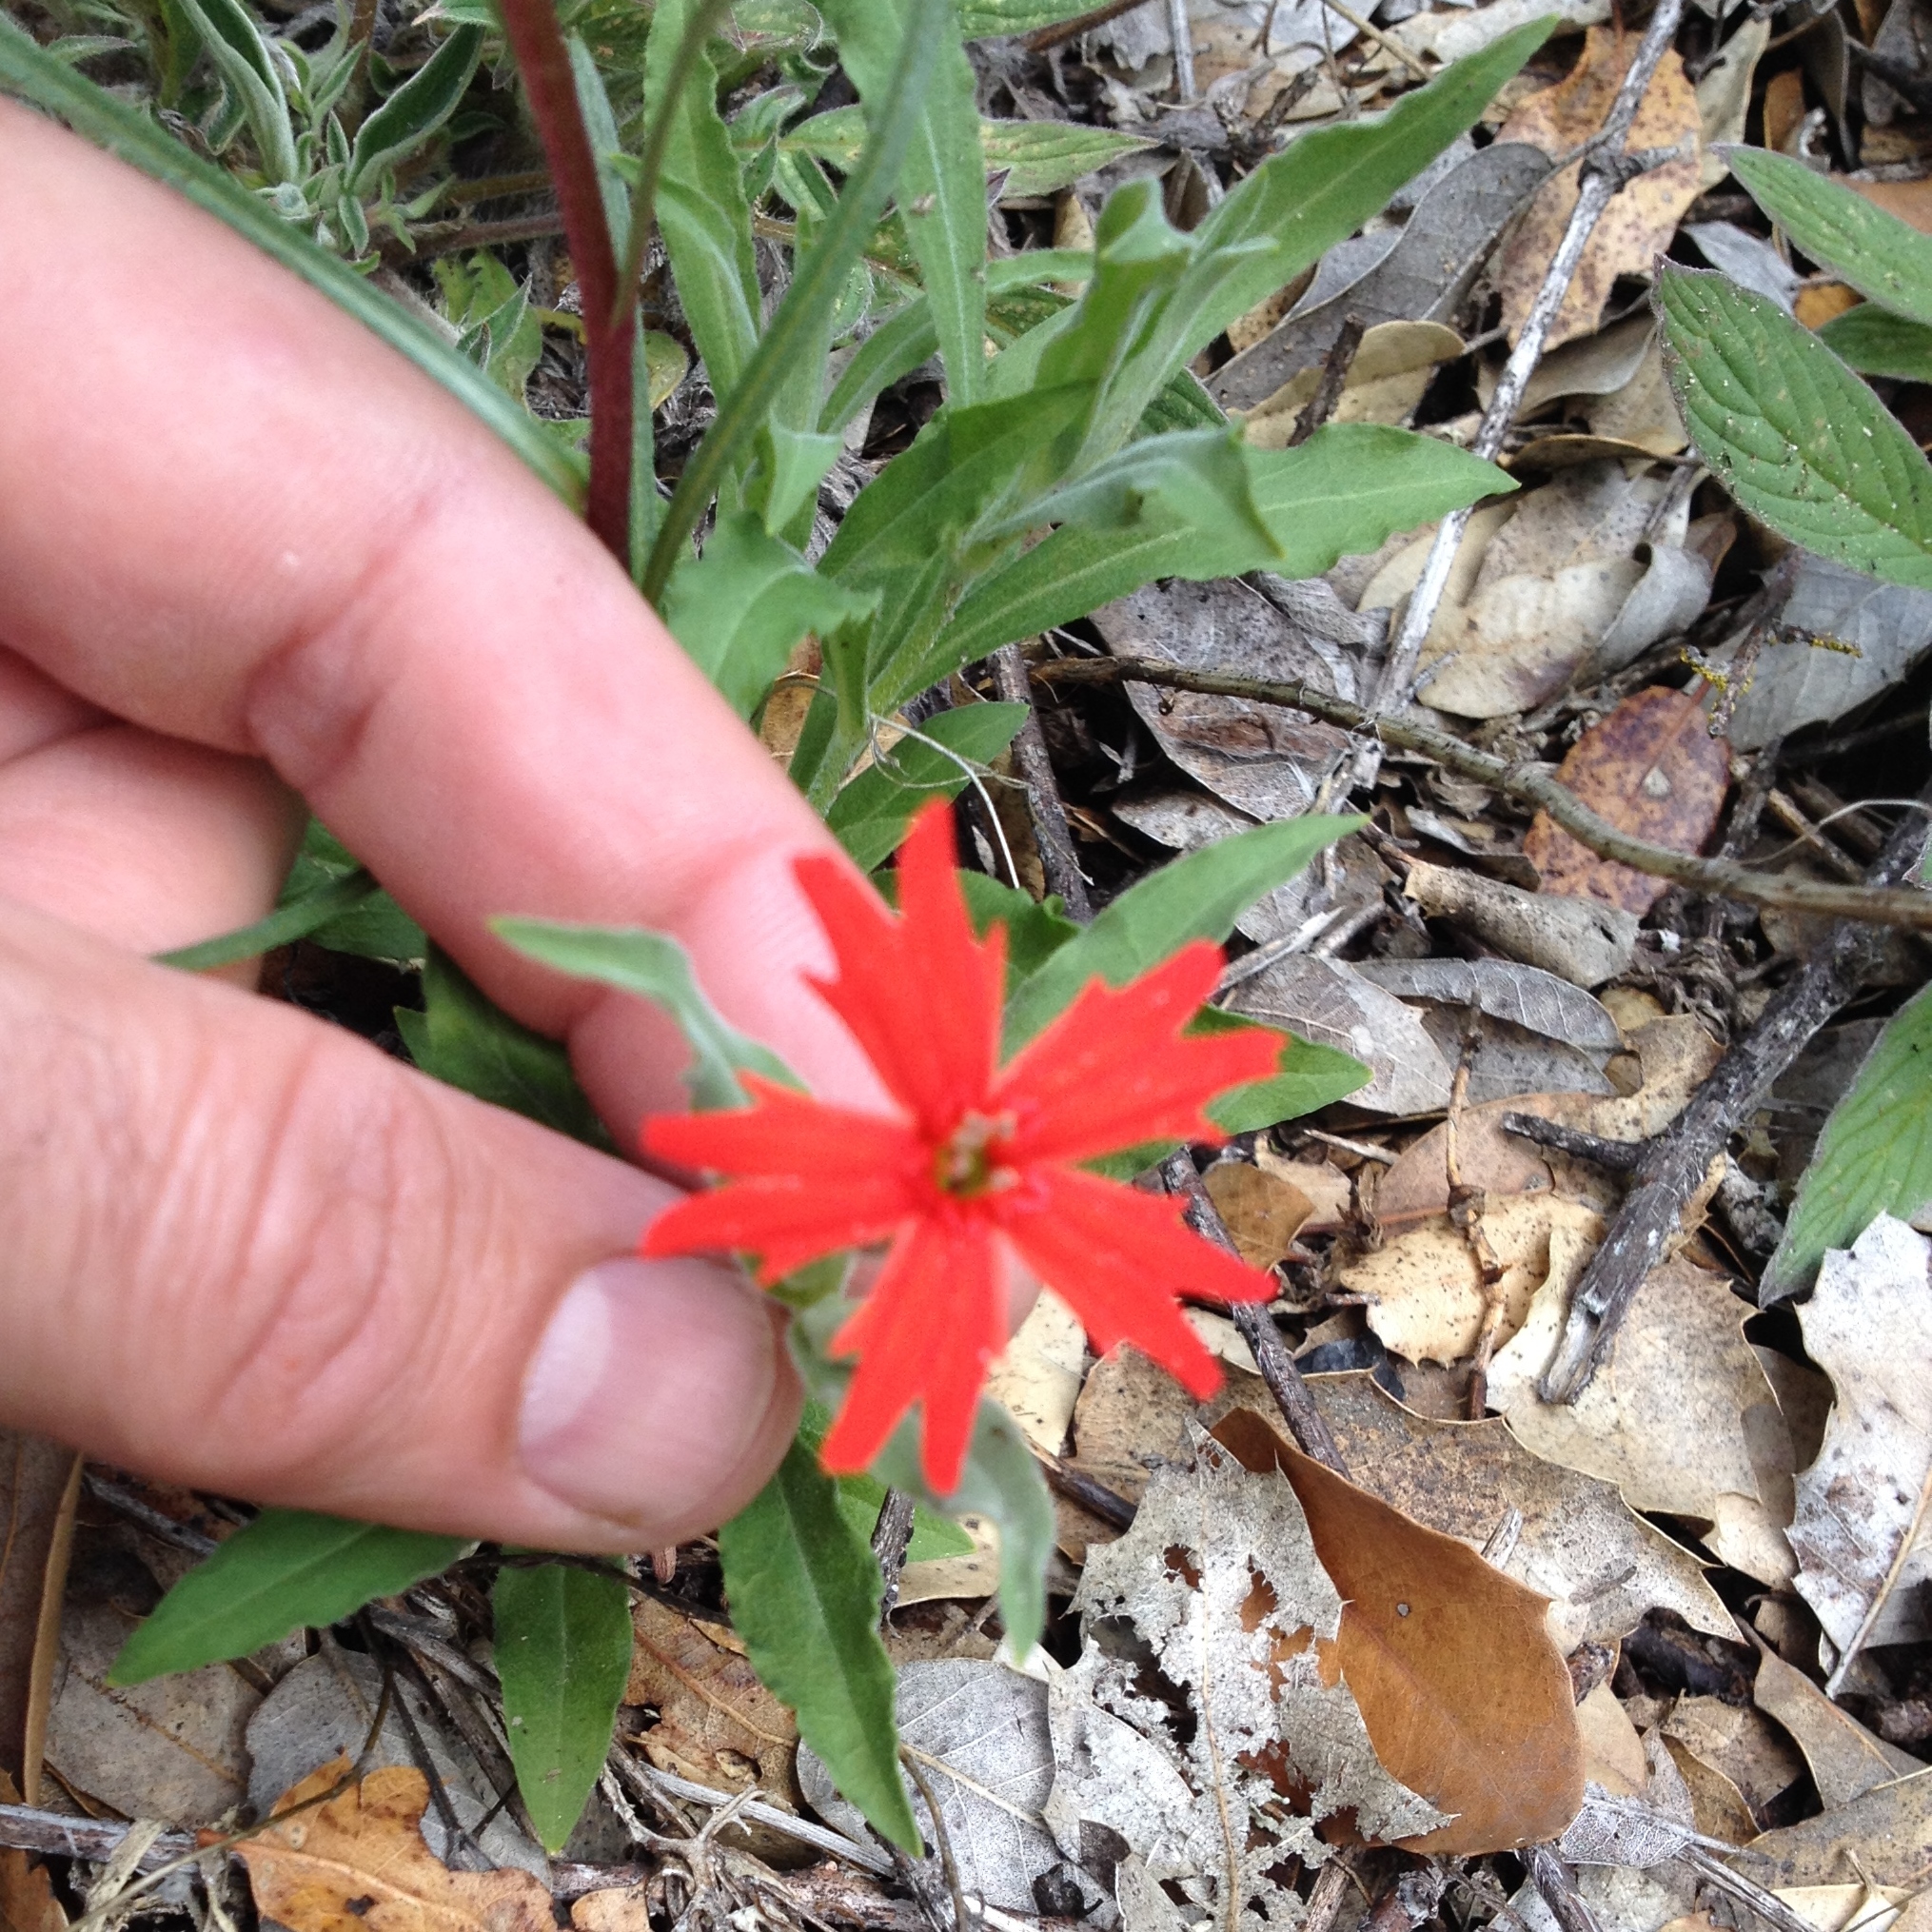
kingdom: Plantae
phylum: Tracheophyta
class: Magnoliopsida
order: Caryophyllales
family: Caryophyllaceae
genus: Silene
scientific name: Silene laciniata
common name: Indian-pink
